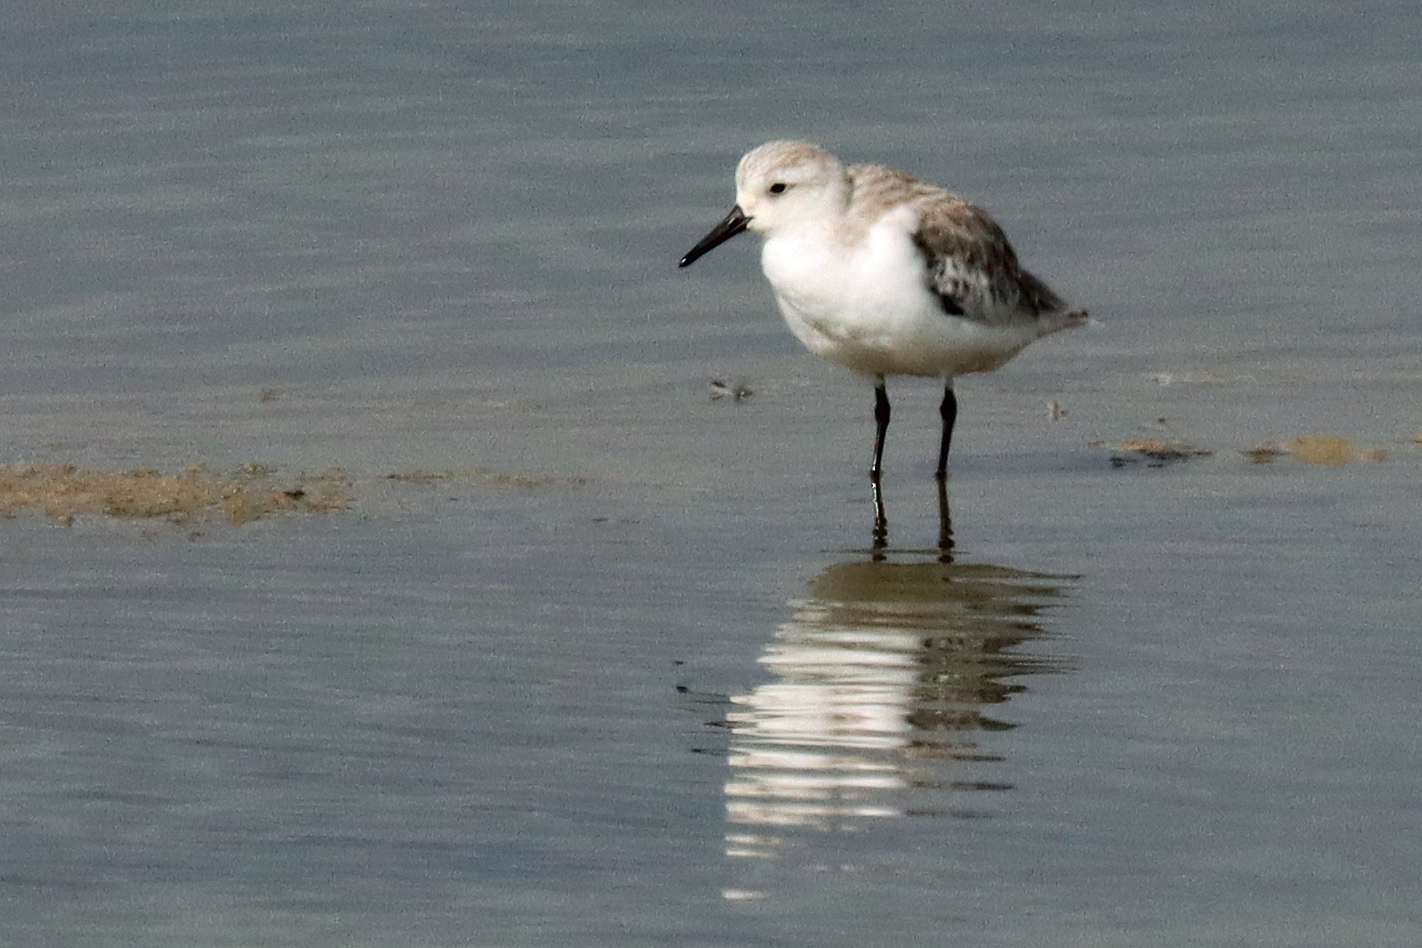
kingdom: Animalia
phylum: Chordata
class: Aves
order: Charadriiformes
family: Scolopacidae
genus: Calidris
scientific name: Calidris alba
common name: Sanderling
